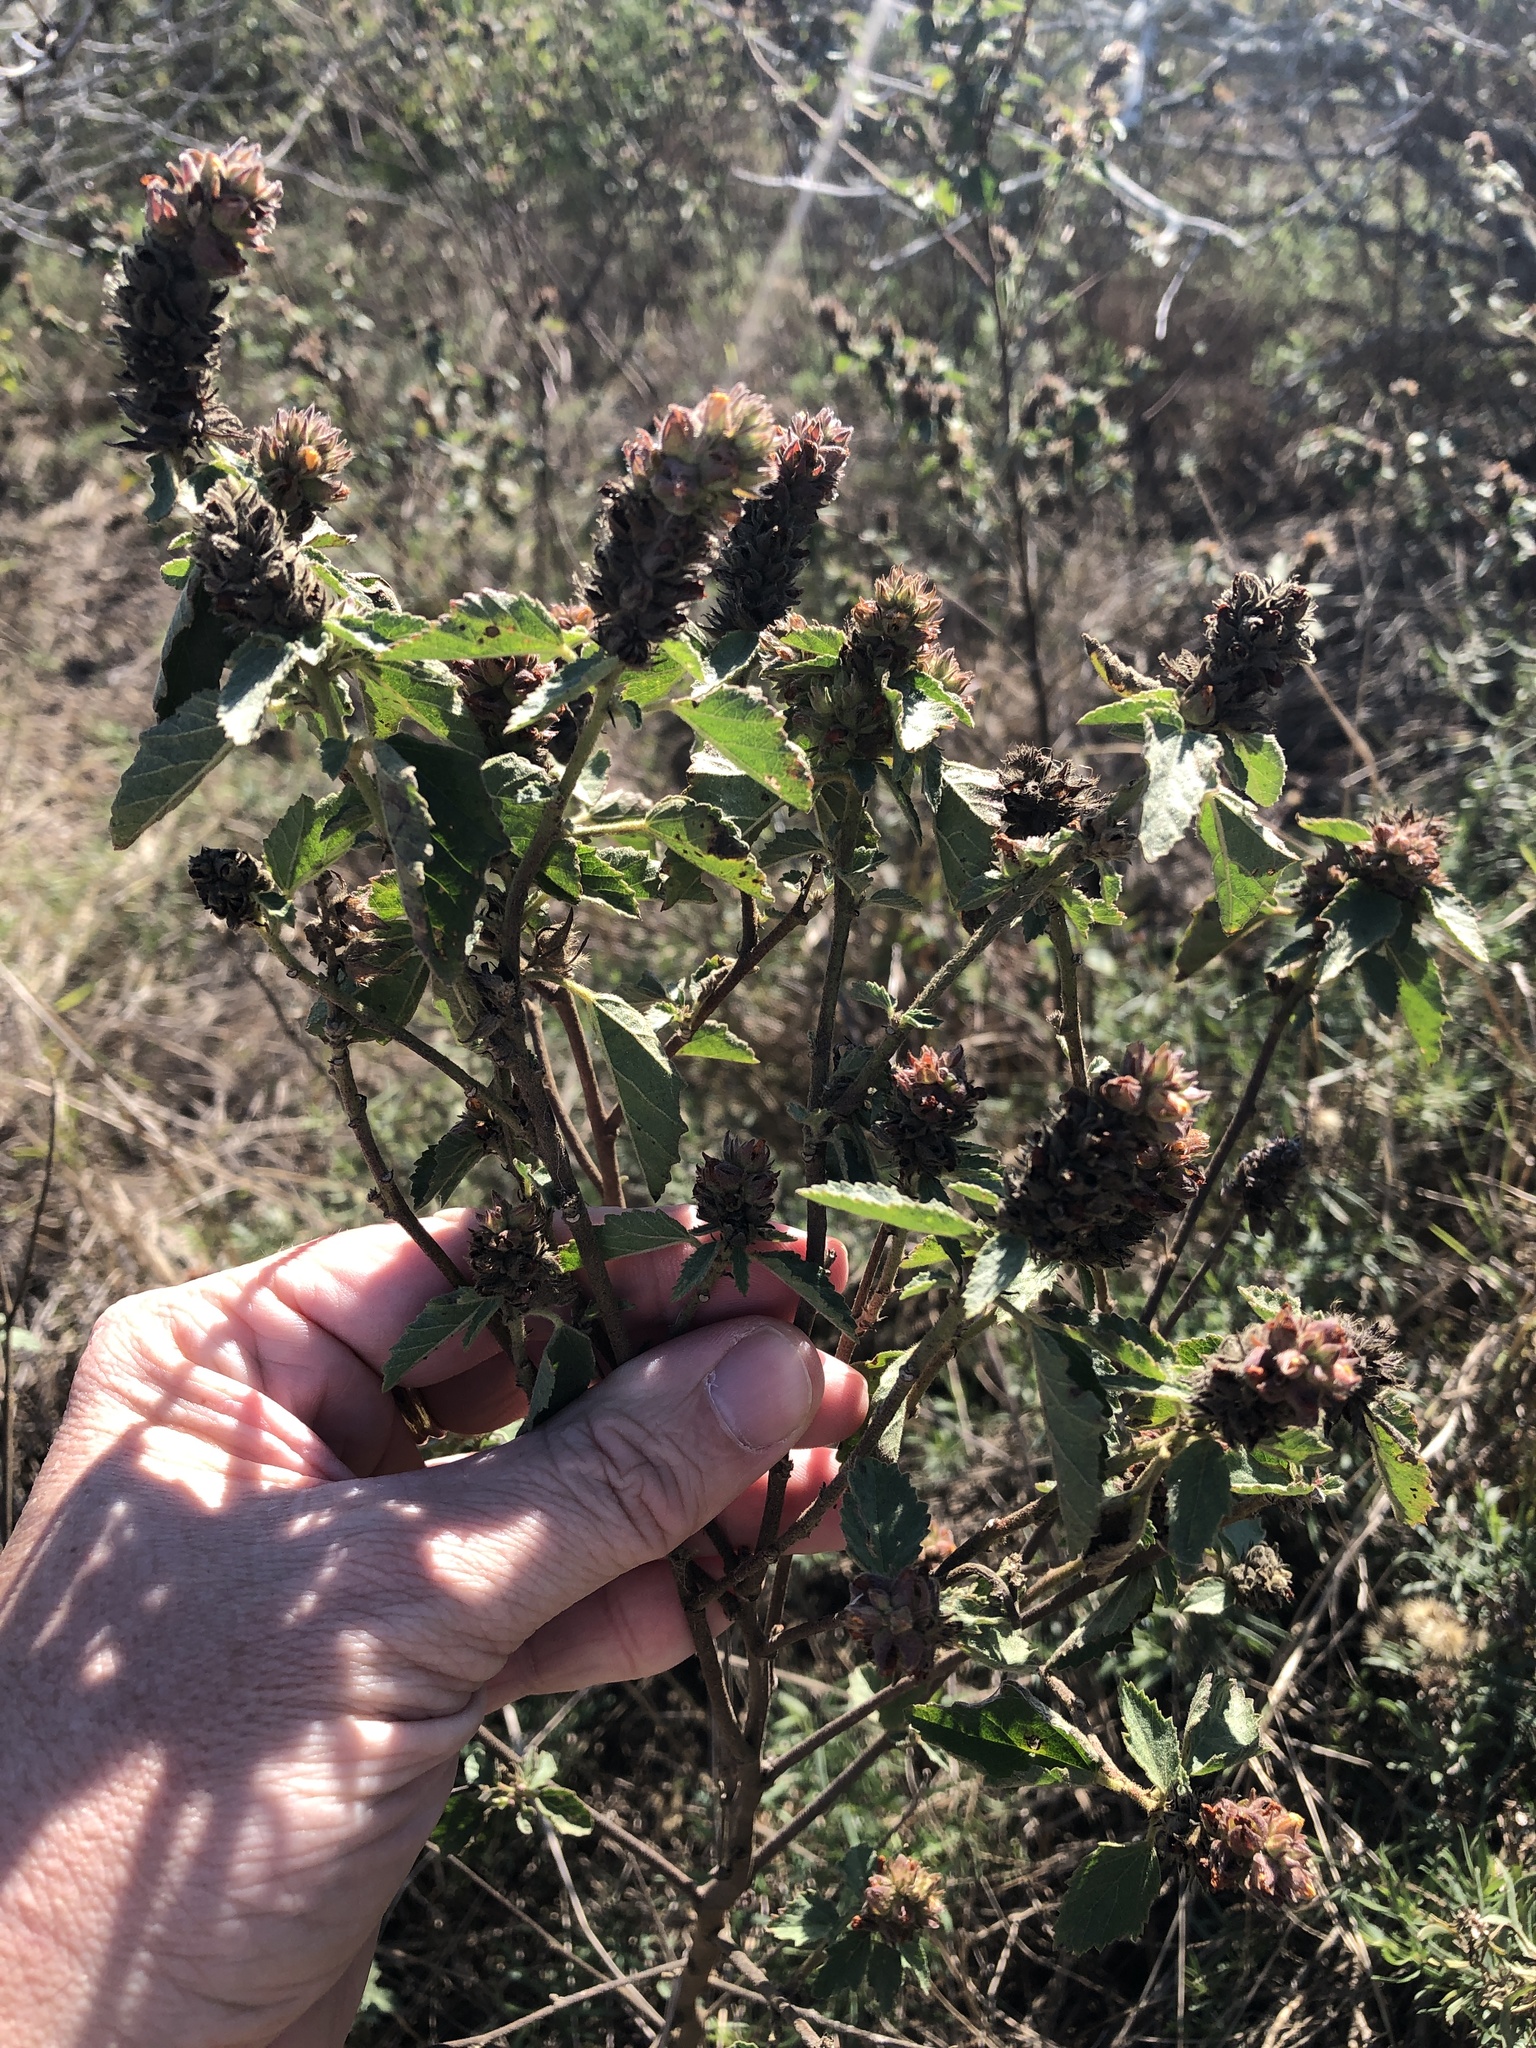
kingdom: Plantae
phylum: Tracheophyta
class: Magnoliopsida
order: Malvales
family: Malvaceae
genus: Malvastrum
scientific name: Malvastrum americanum
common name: Spiked malvastrum
